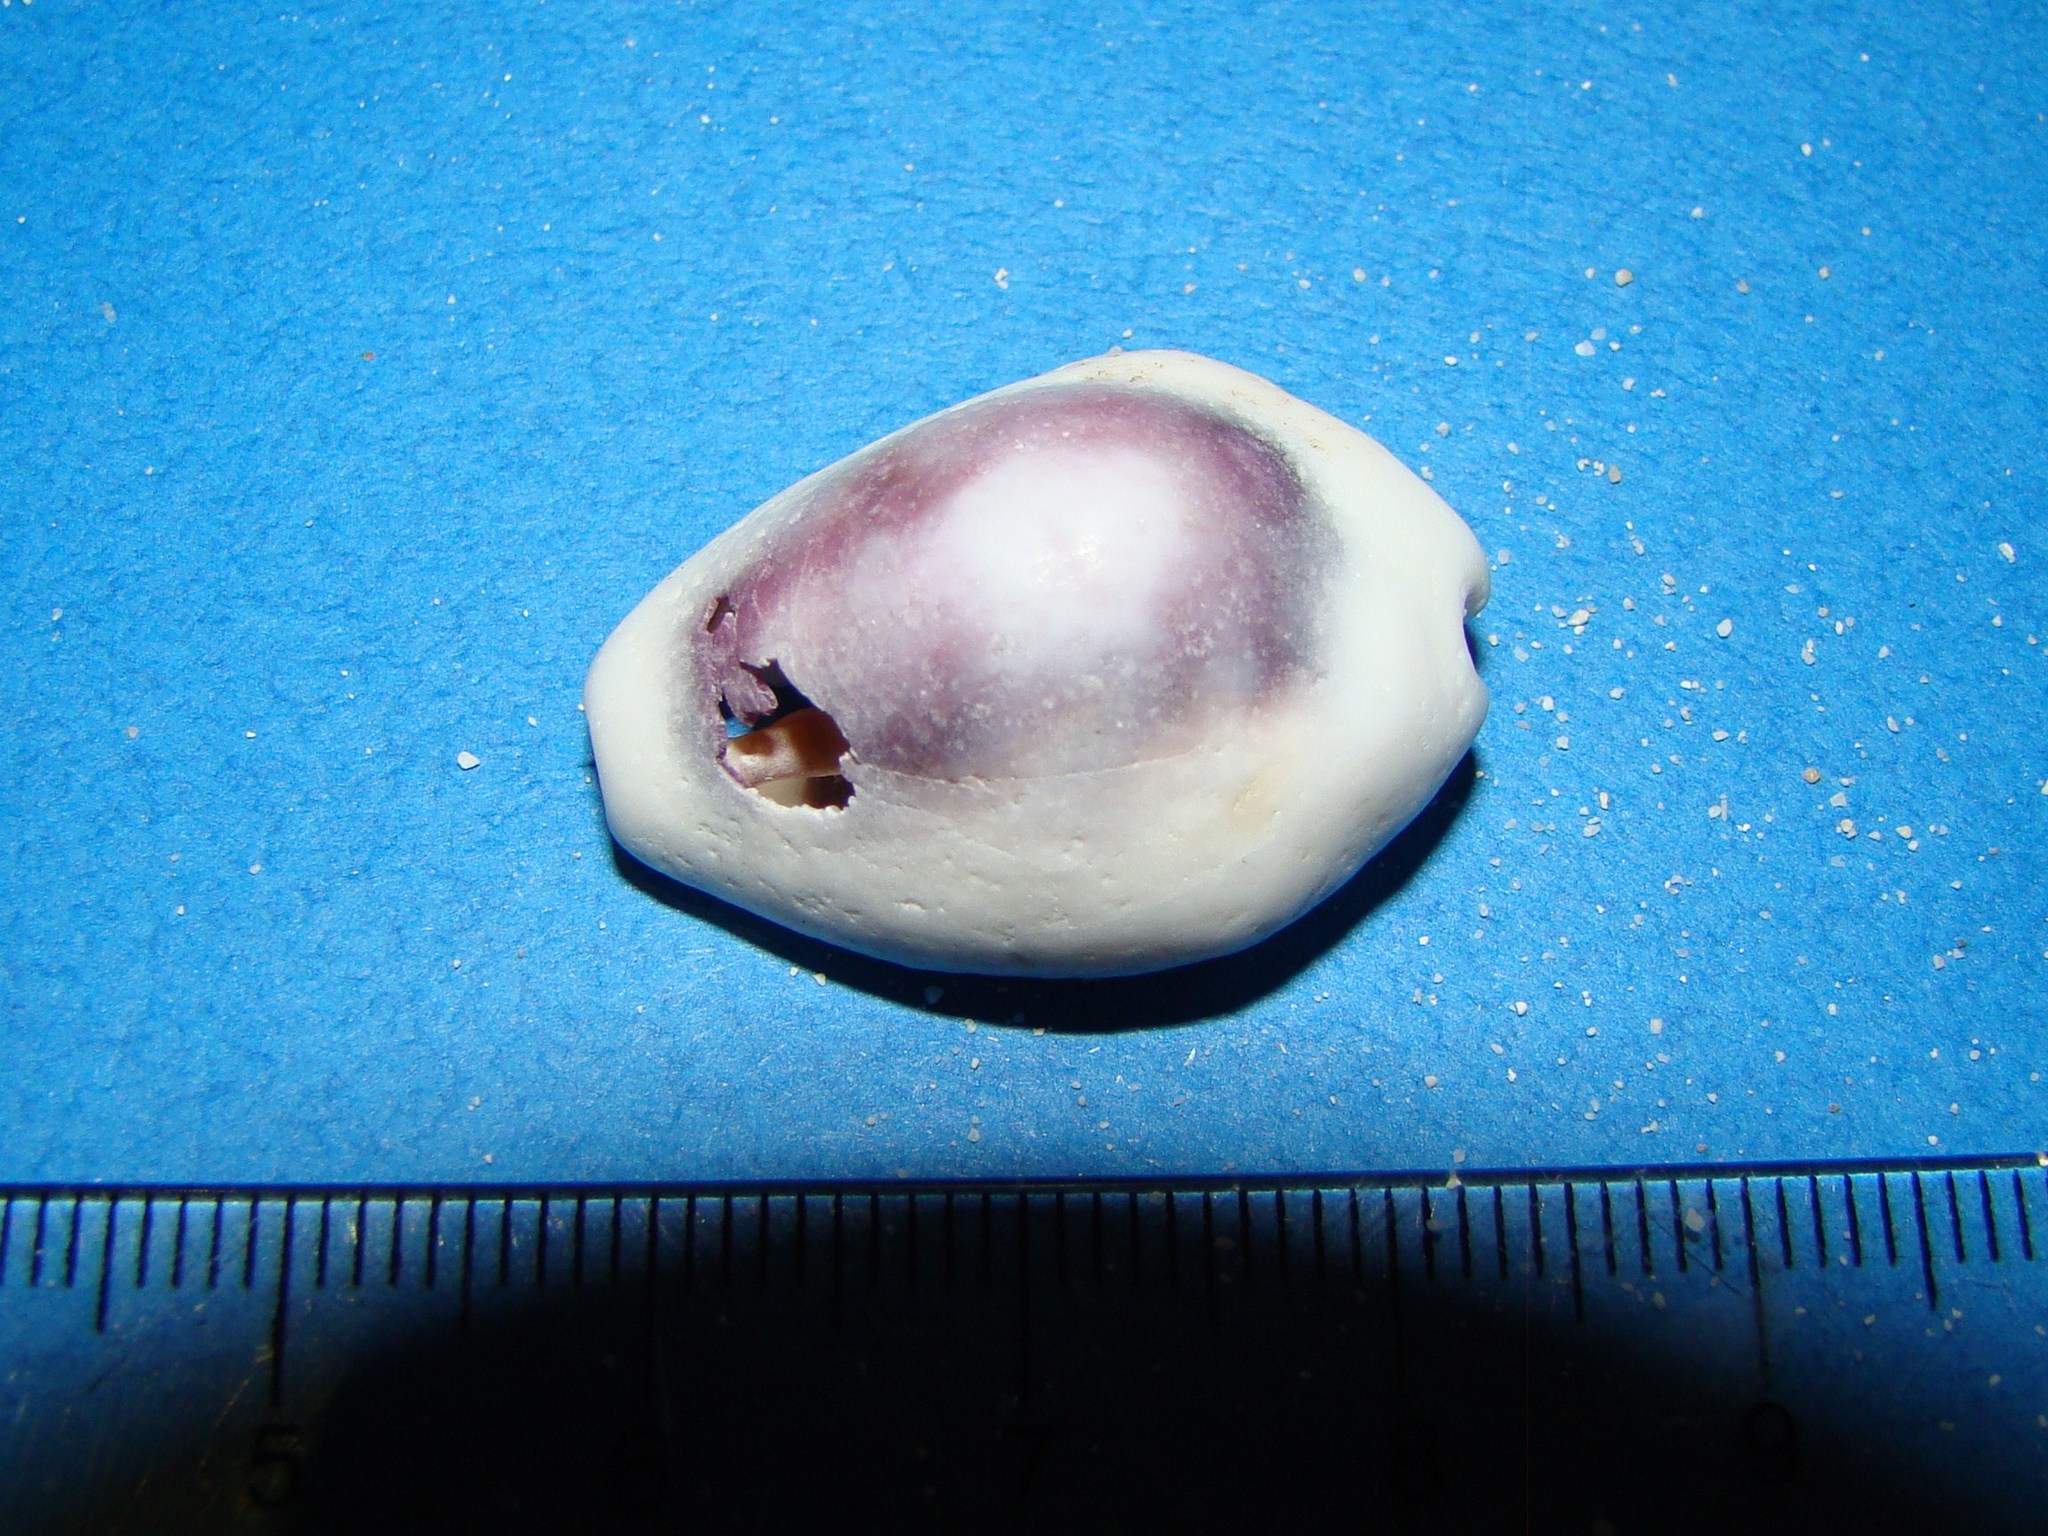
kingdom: Animalia
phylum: Mollusca
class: Gastropoda
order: Littorinimorpha
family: Cypraeidae
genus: Monetaria
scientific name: Monetaria moneta
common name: Money cowrie
